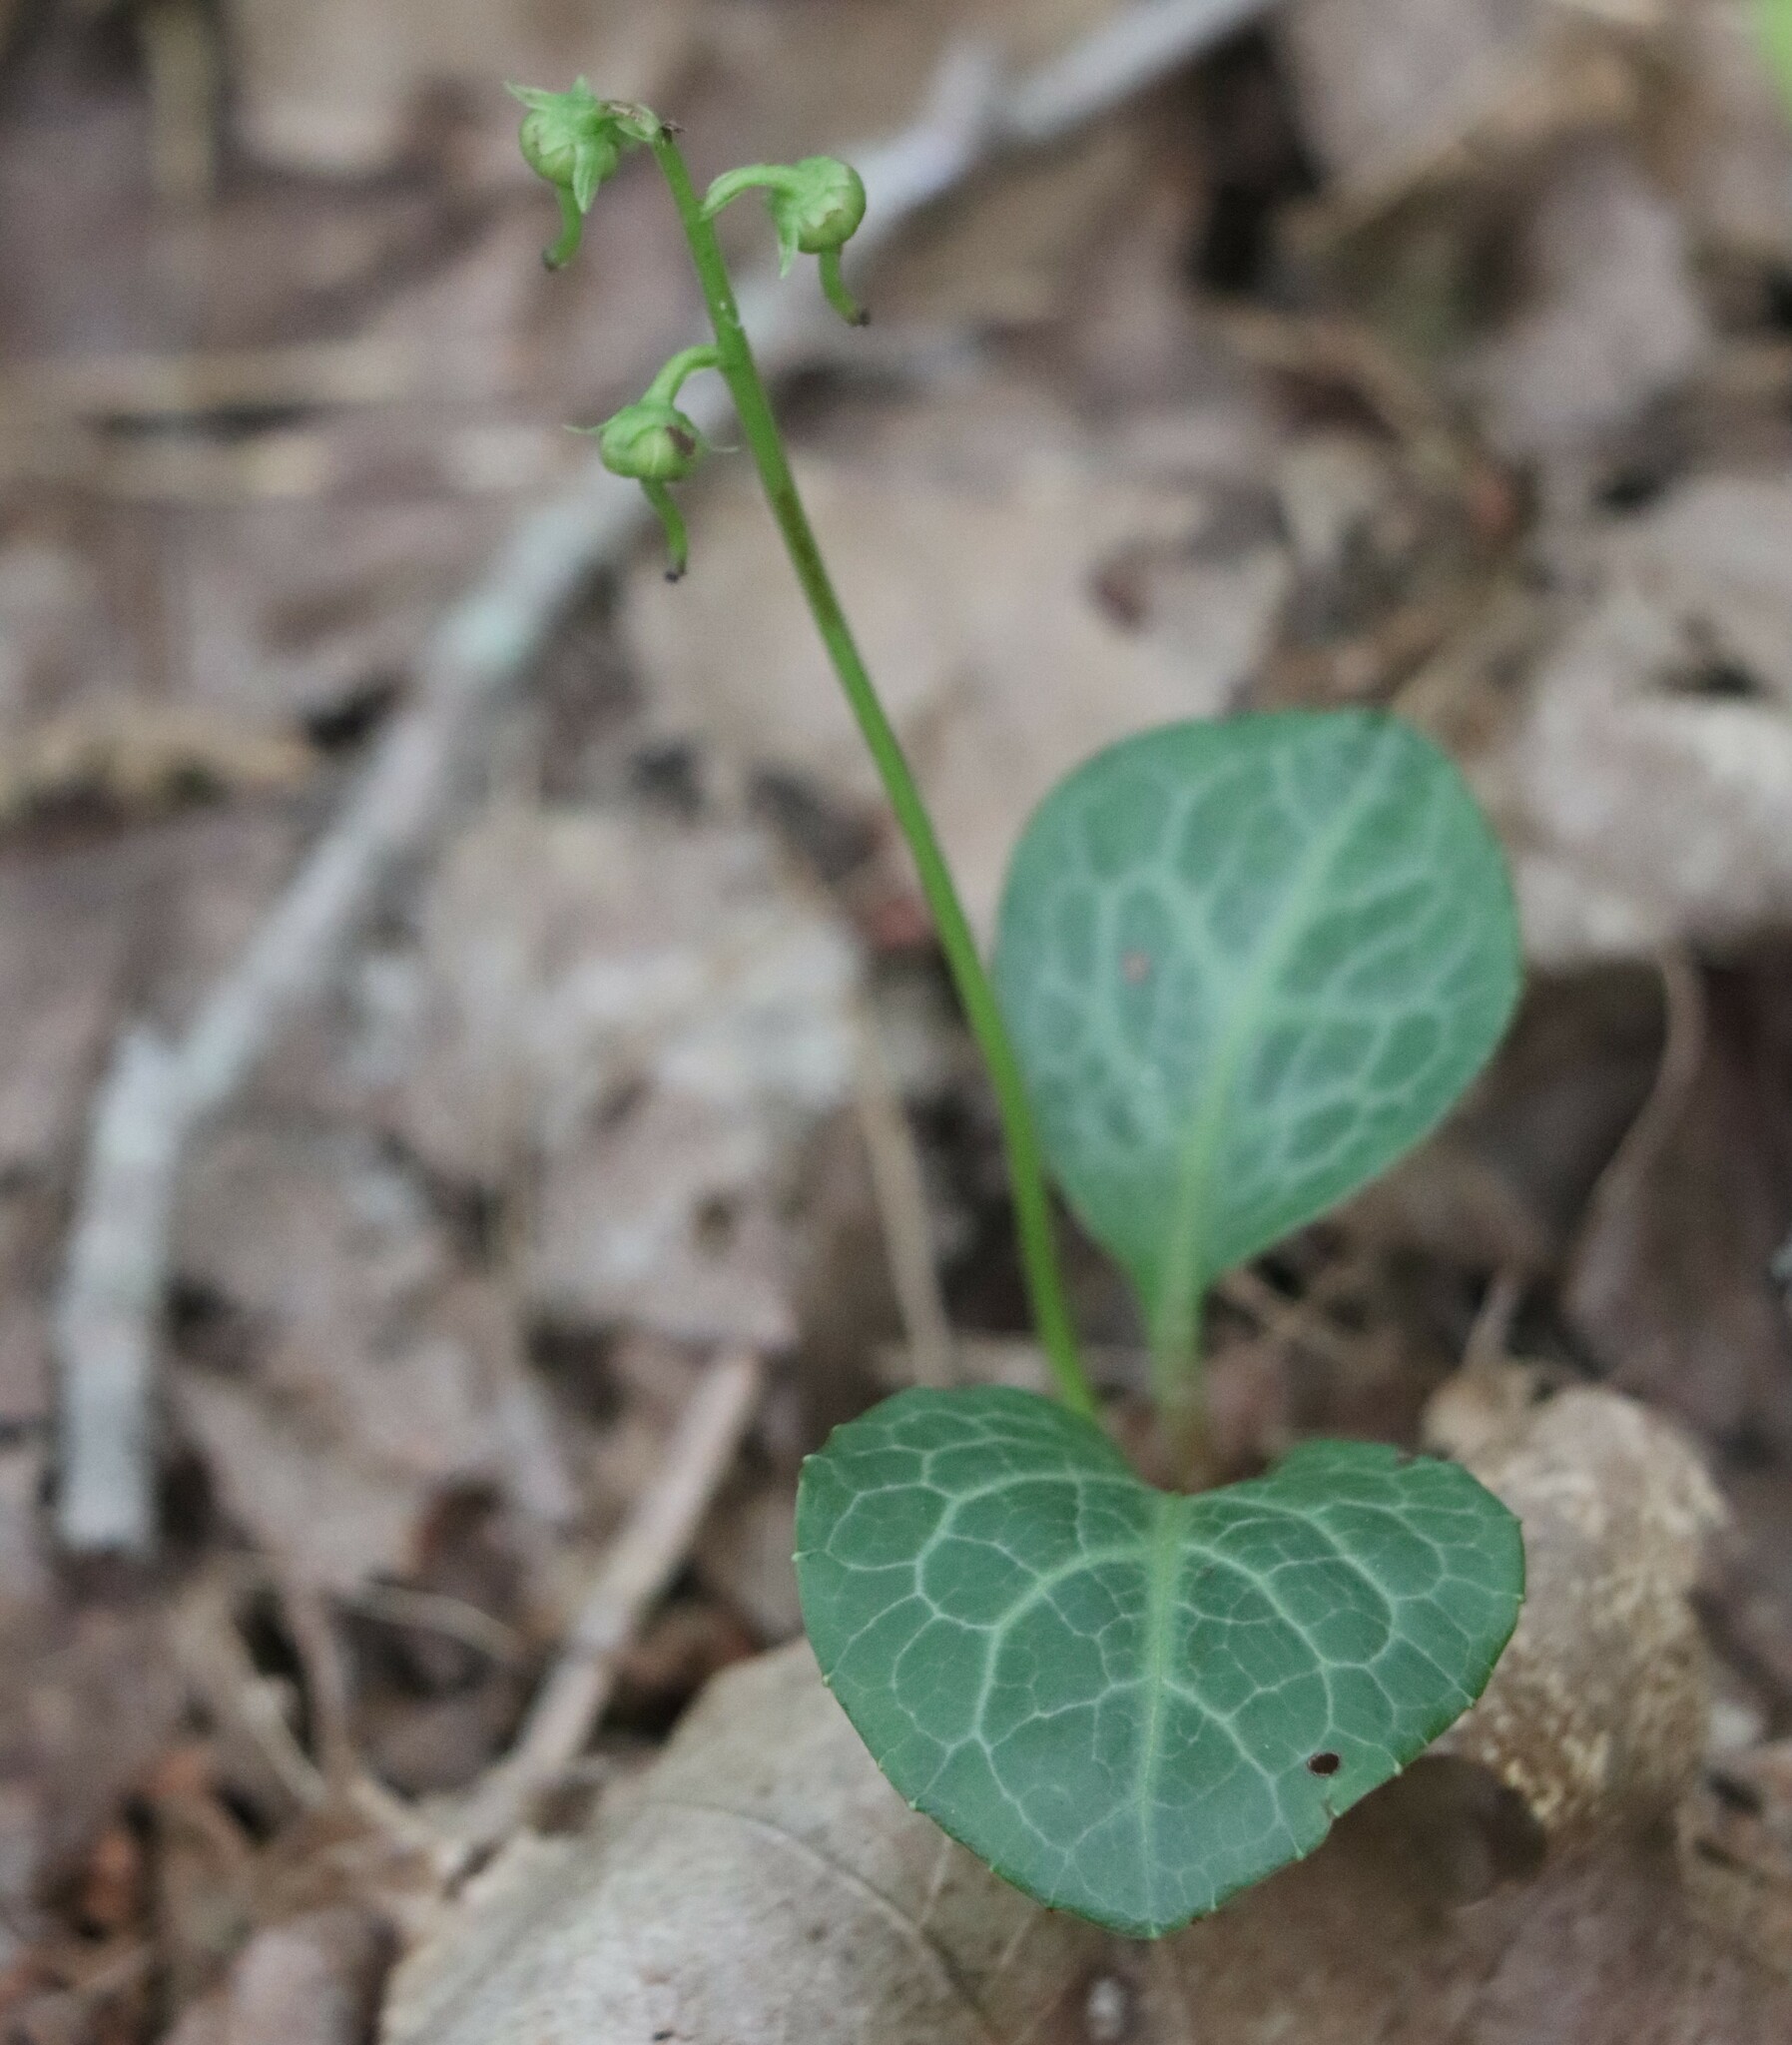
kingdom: Plantae
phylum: Tracheophyta
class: Magnoliopsida
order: Ericales
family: Ericaceae
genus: Pyrola
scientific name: Pyrola americana
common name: American wintergreen
